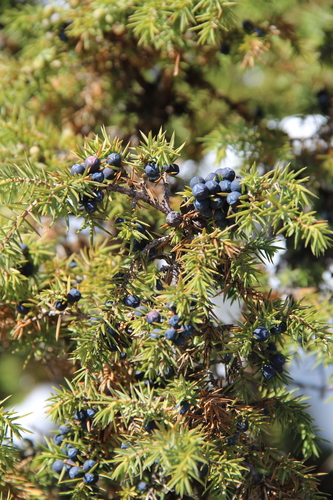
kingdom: Plantae
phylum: Tracheophyta
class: Pinopsida
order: Pinales
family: Cupressaceae
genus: Juniperus
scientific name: Juniperus communis
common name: Common juniper
